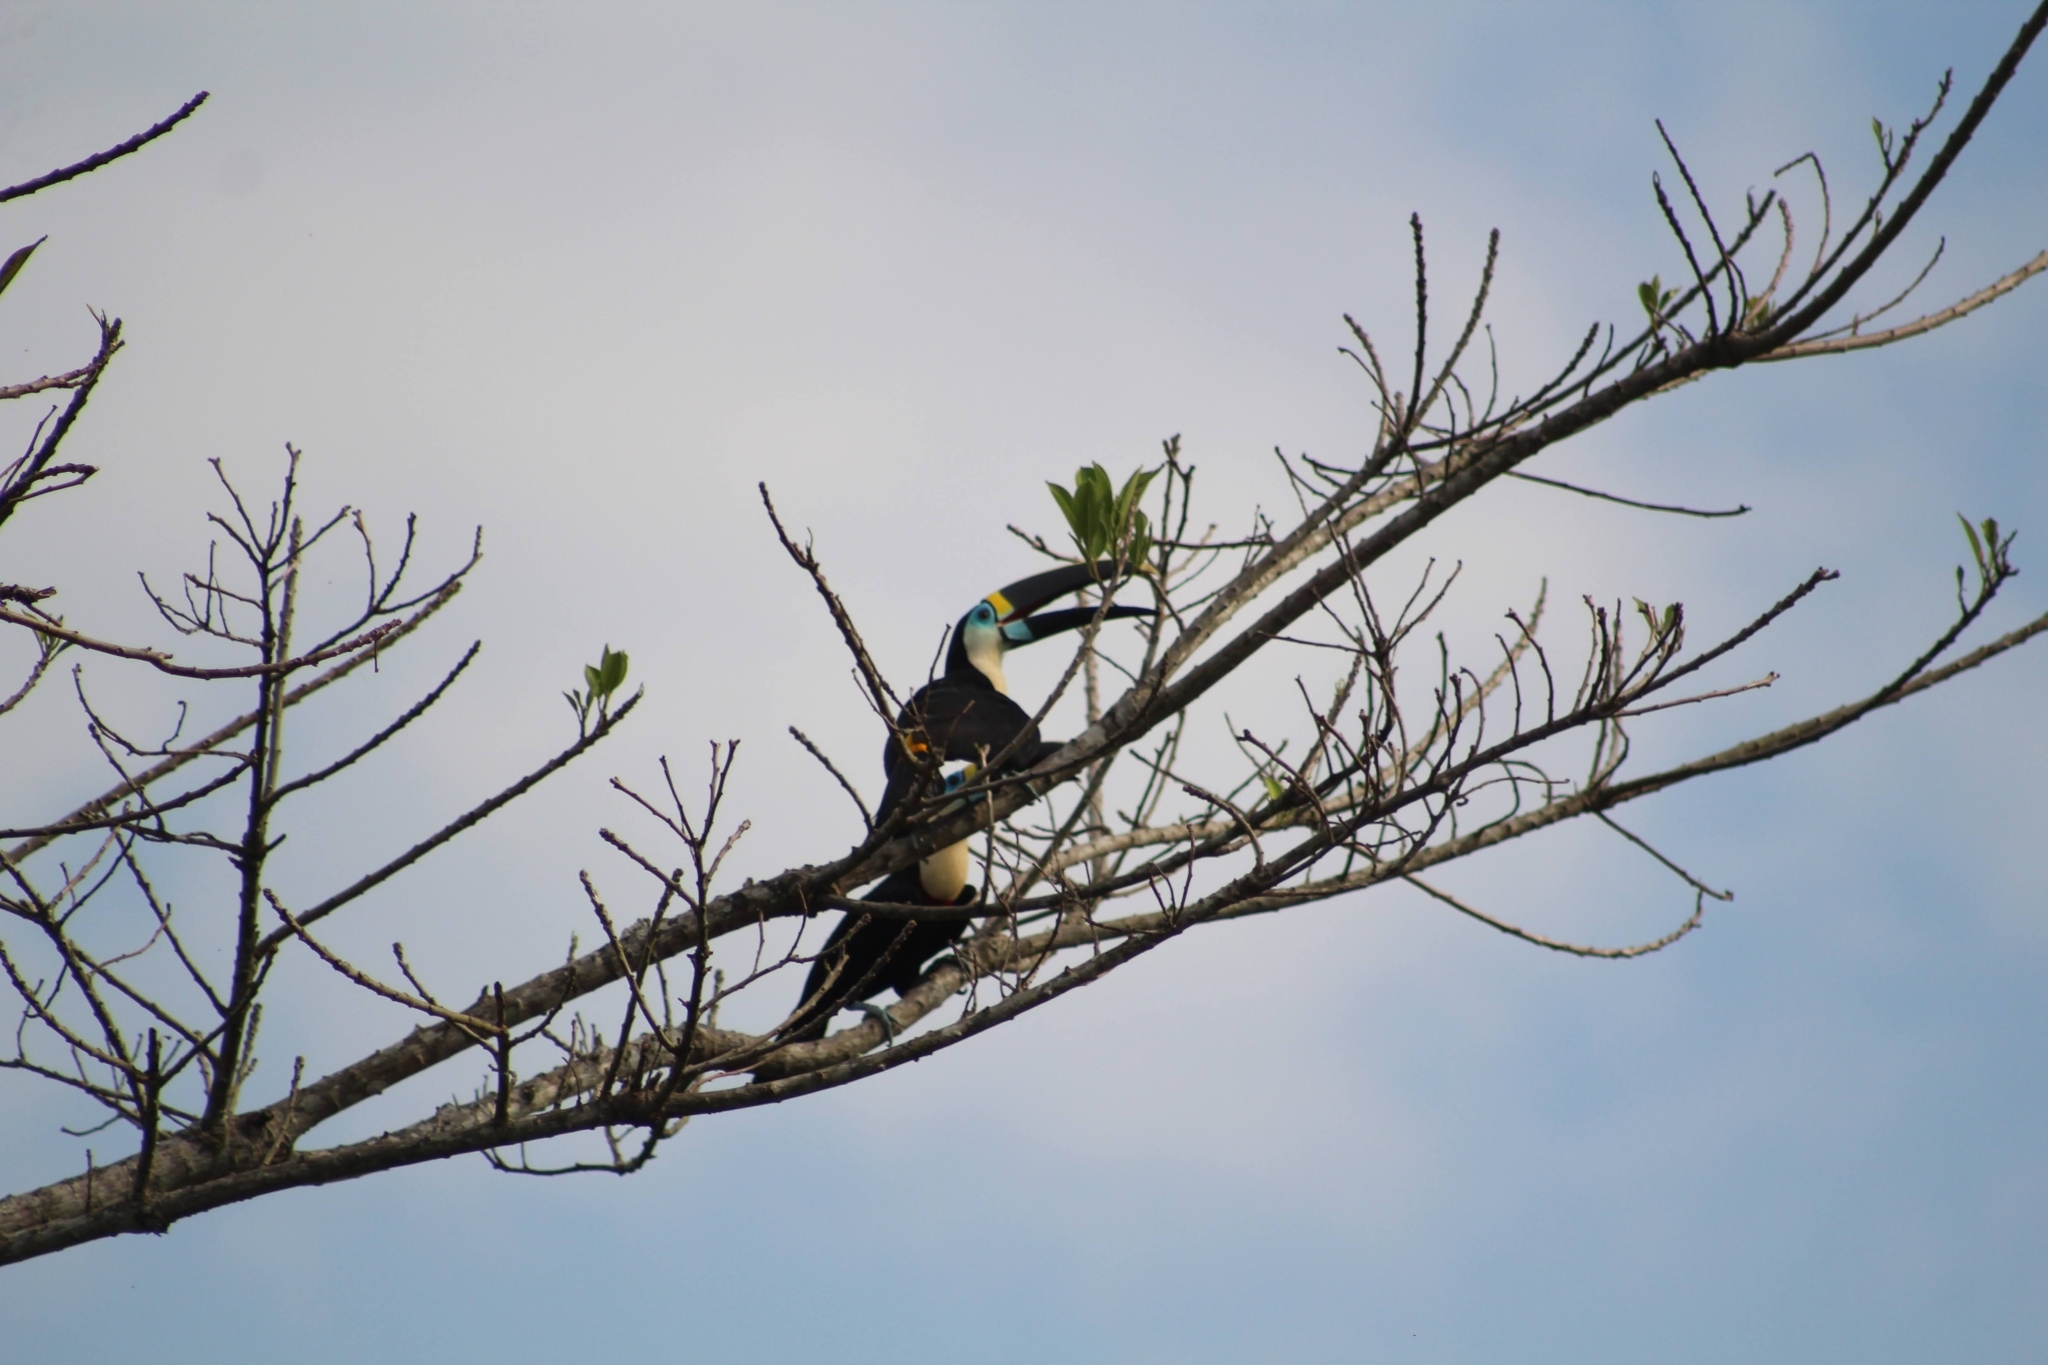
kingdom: Animalia
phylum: Chordata
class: Aves
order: Piciformes
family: Ramphastidae
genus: Ramphastos
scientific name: Ramphastos tucanus
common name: White-throated toucan
